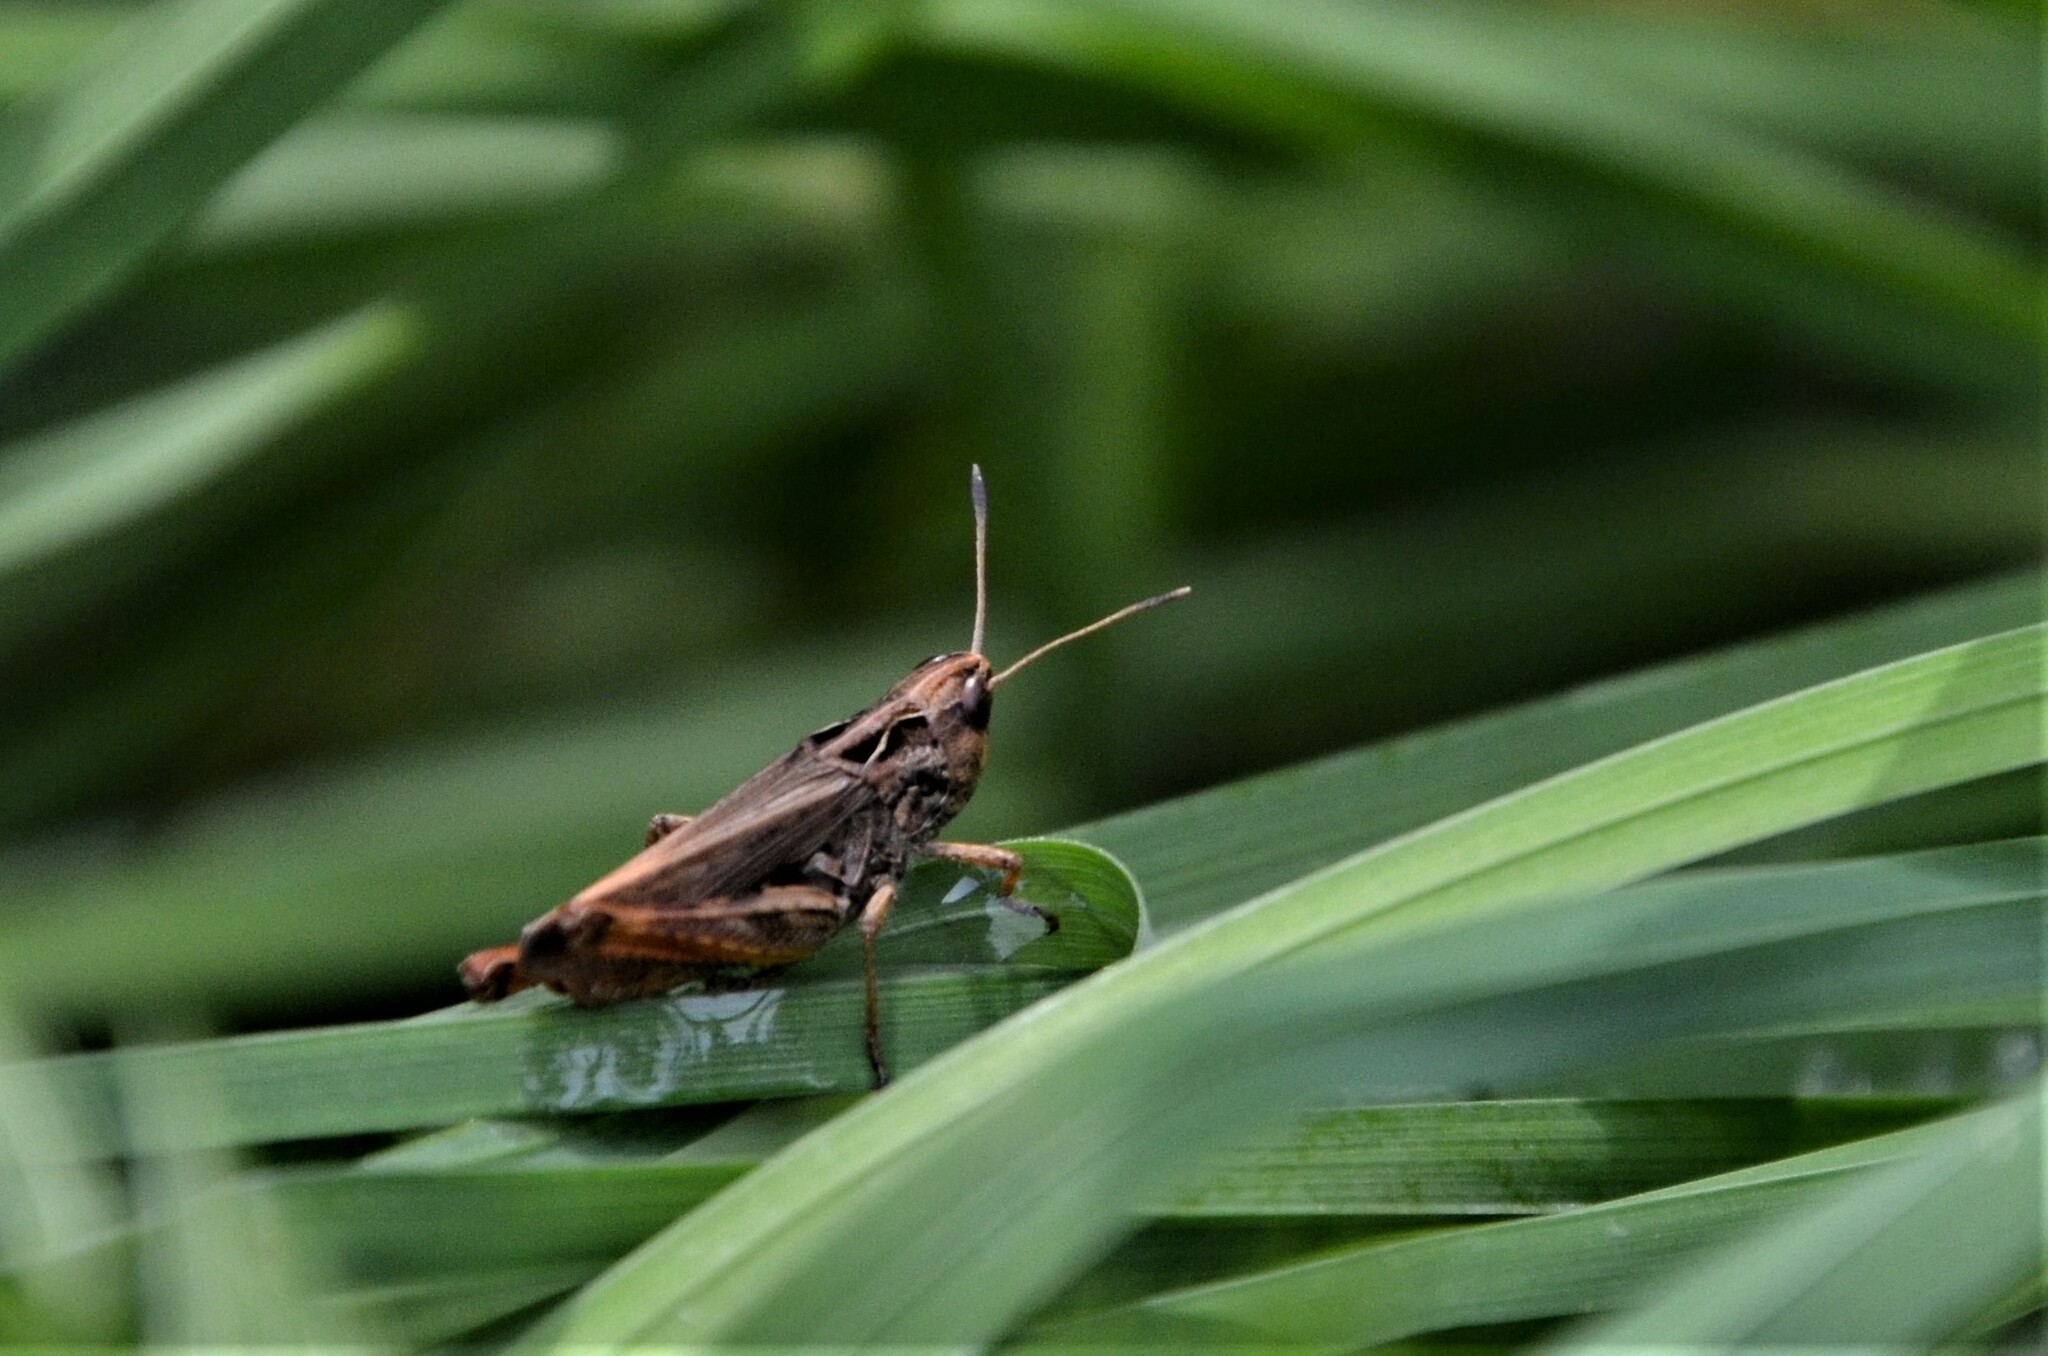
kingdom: Animalia
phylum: Arthropoda
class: Insecta
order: Orthoptera
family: Acrididae
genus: Gomphocerippus
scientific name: Gomphocerippus rufus
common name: Rufous grasshopper
